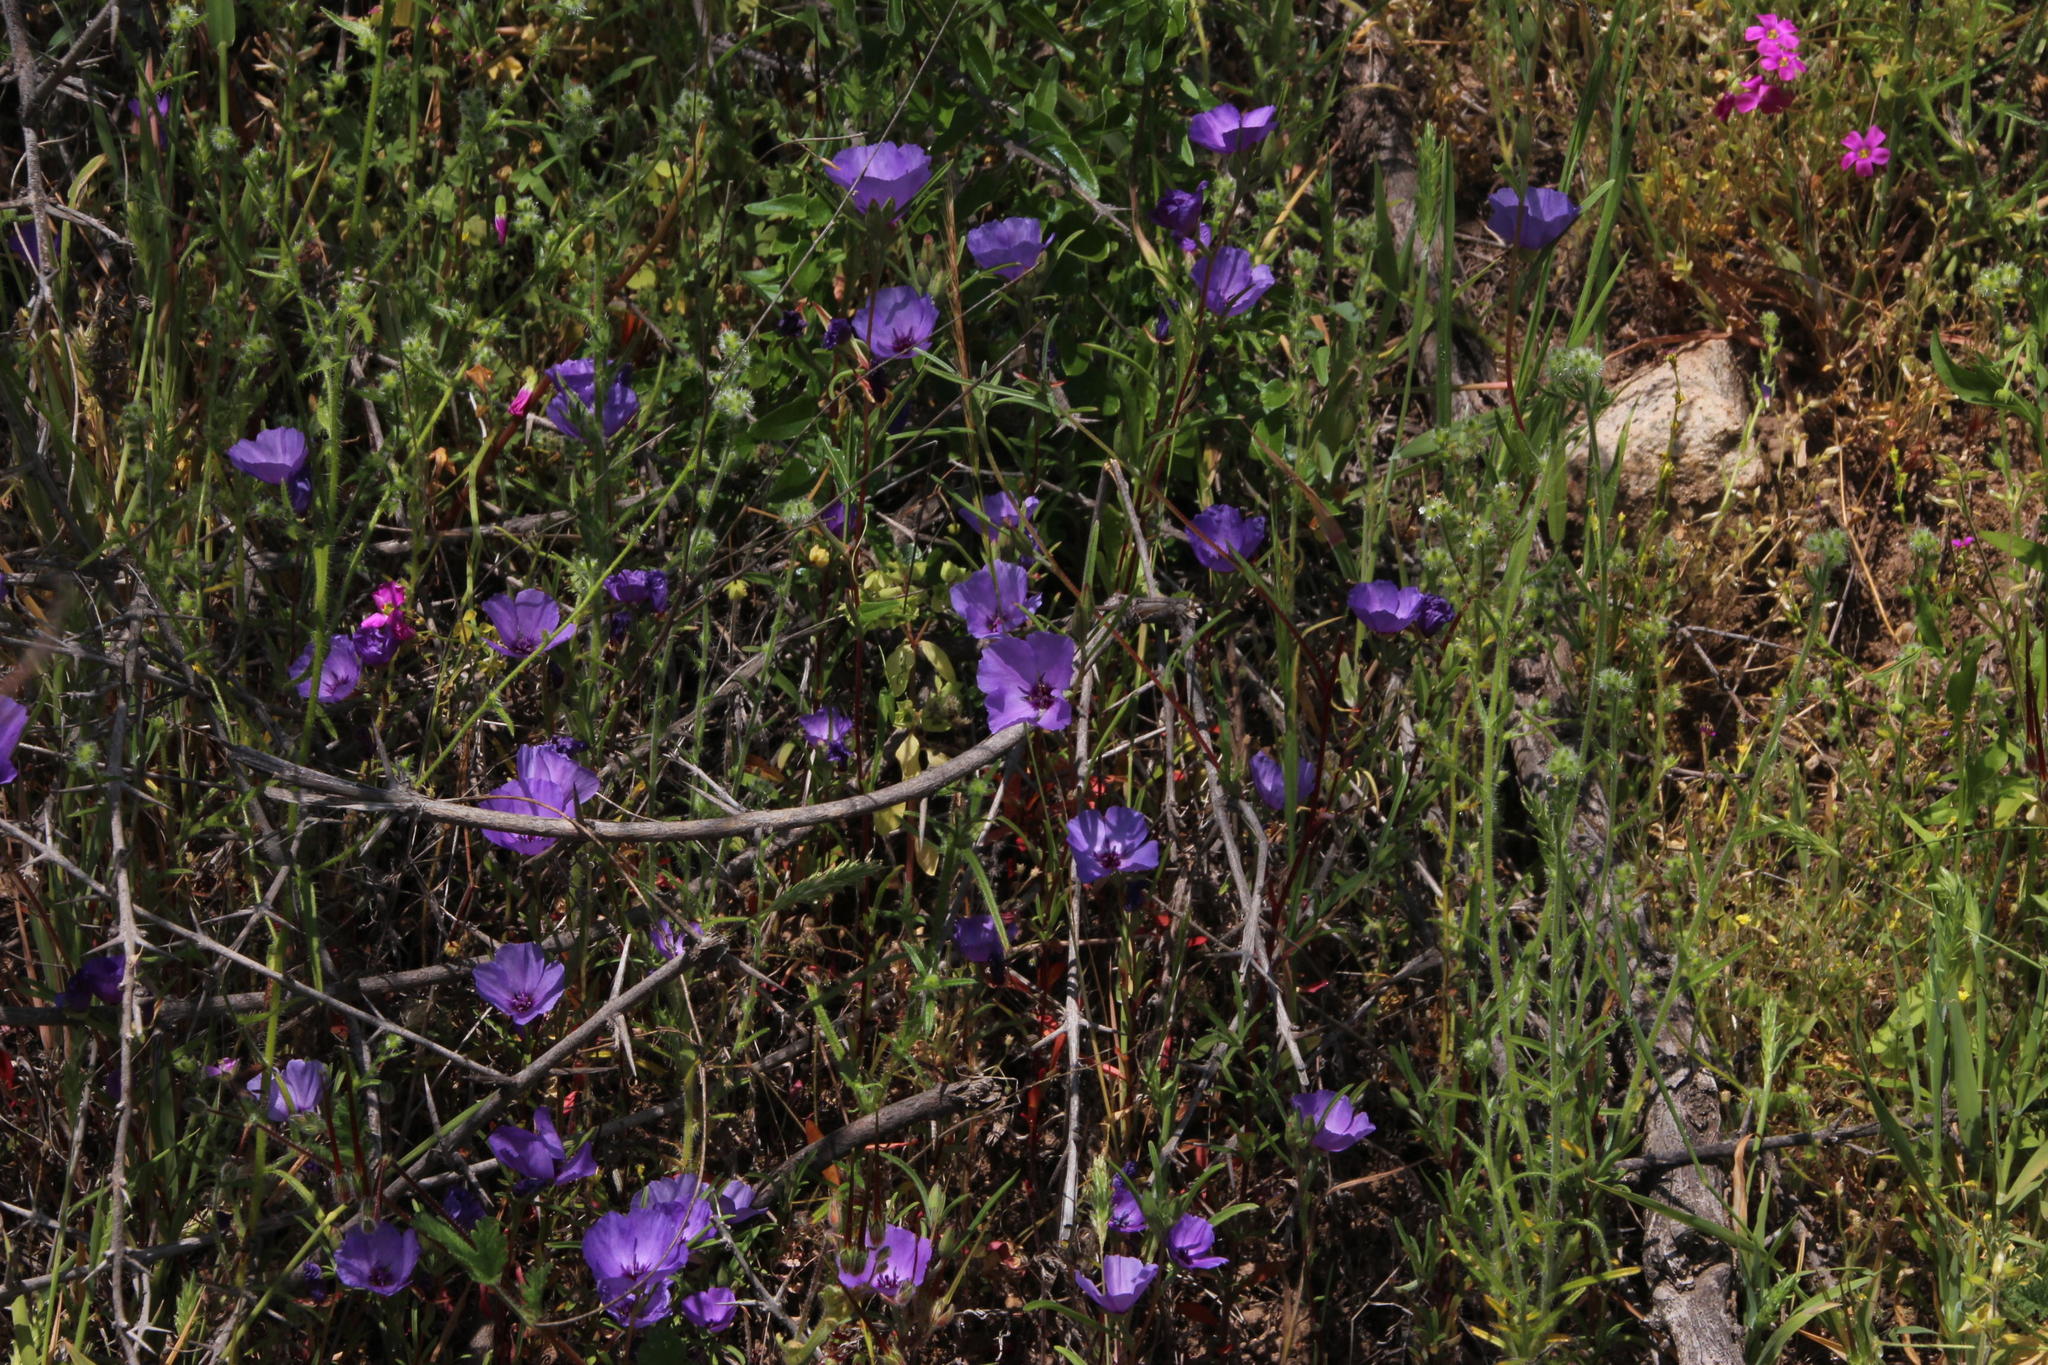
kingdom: Plantae
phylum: Tracheophyta
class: Magnoliopsida
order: Myrtales
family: Onagraceae
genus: Clarkia
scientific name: Clarkia tenella
